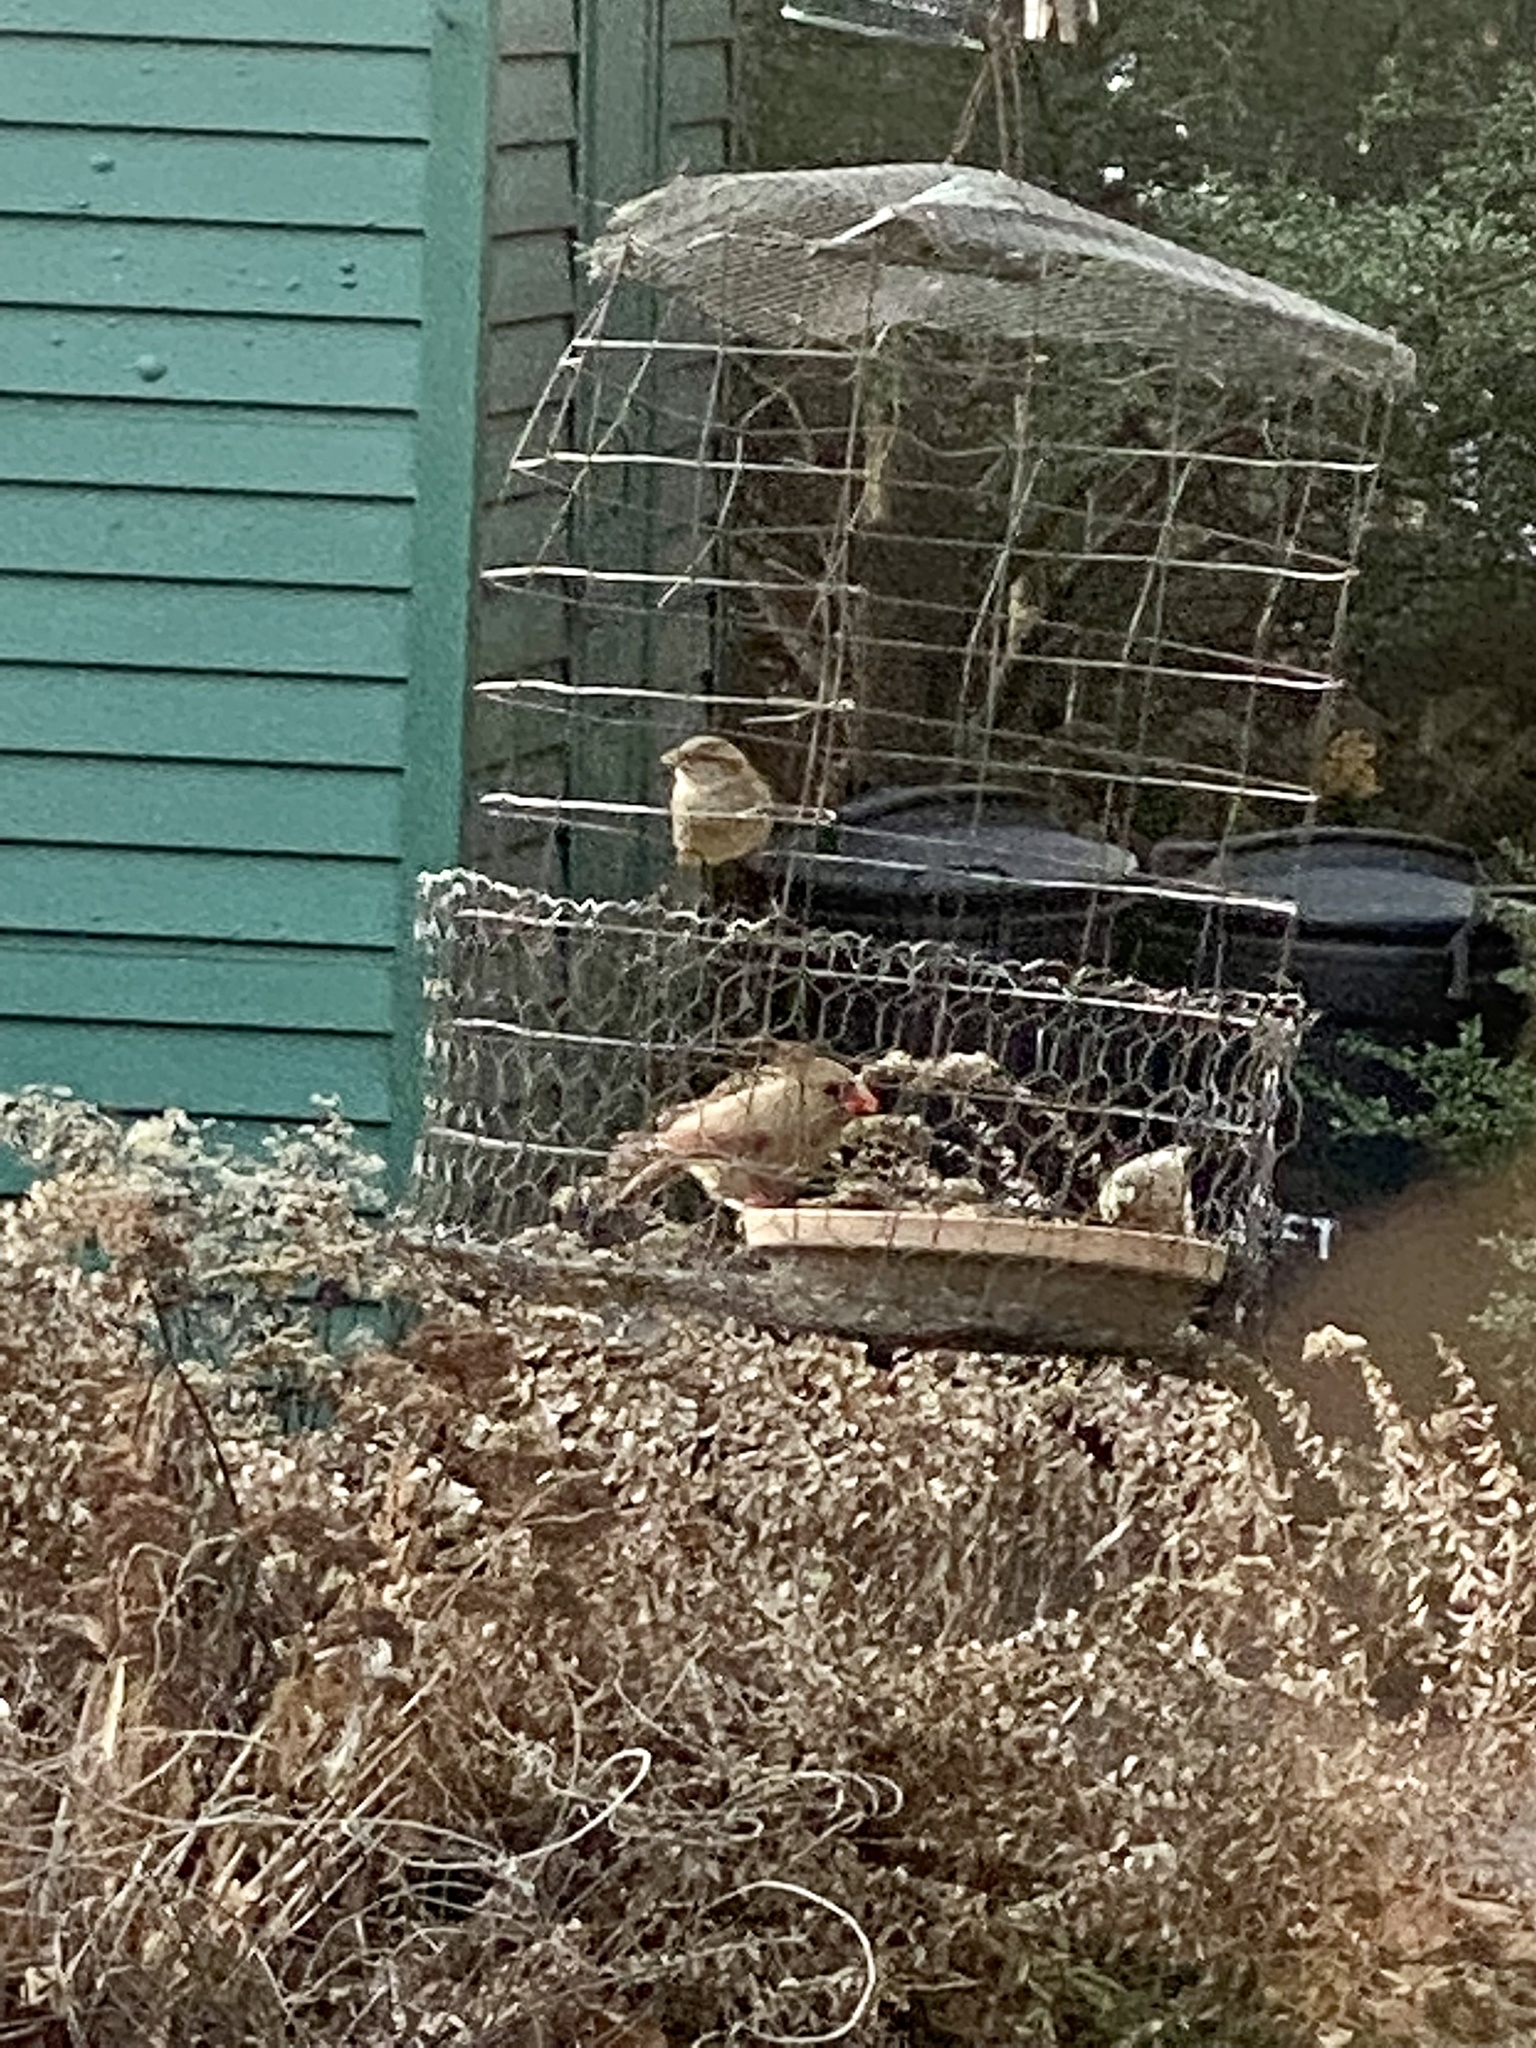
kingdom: Animalia
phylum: Chordata
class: Aves
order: Passeriformes
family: Cardinalidae
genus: Cardinalis
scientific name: Cardinalis cardinalis
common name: Northern cardinal
